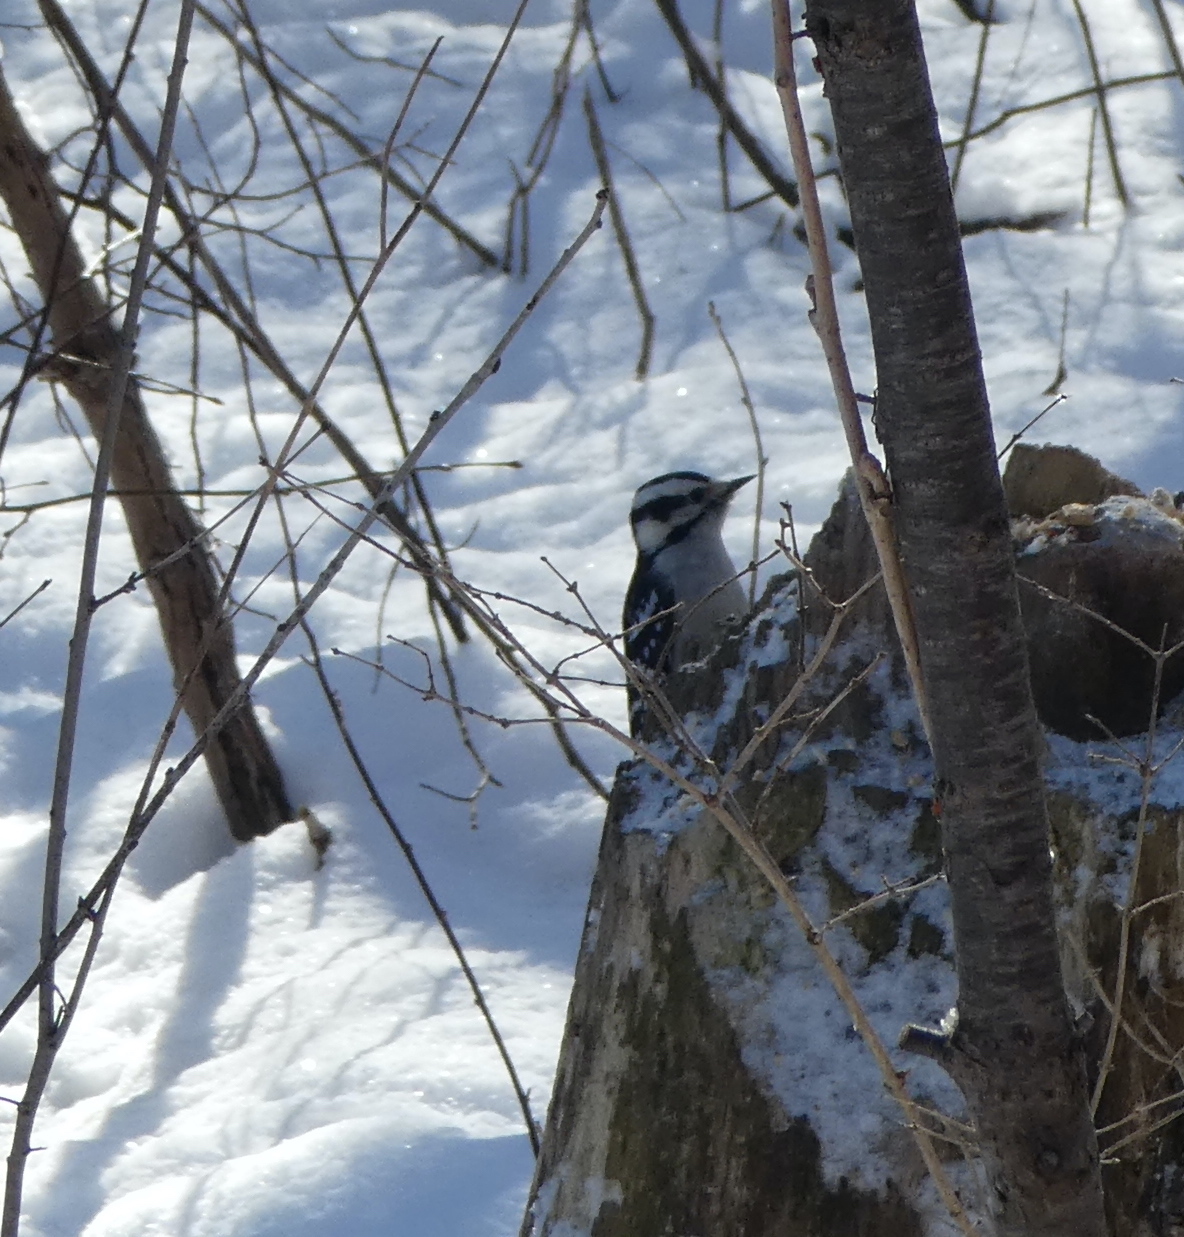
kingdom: Animalia
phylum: Chordata
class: Aves
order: Piciformes
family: Picidae
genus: Dryobates
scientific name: Dryobates pubescens
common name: Downy woodpecker
